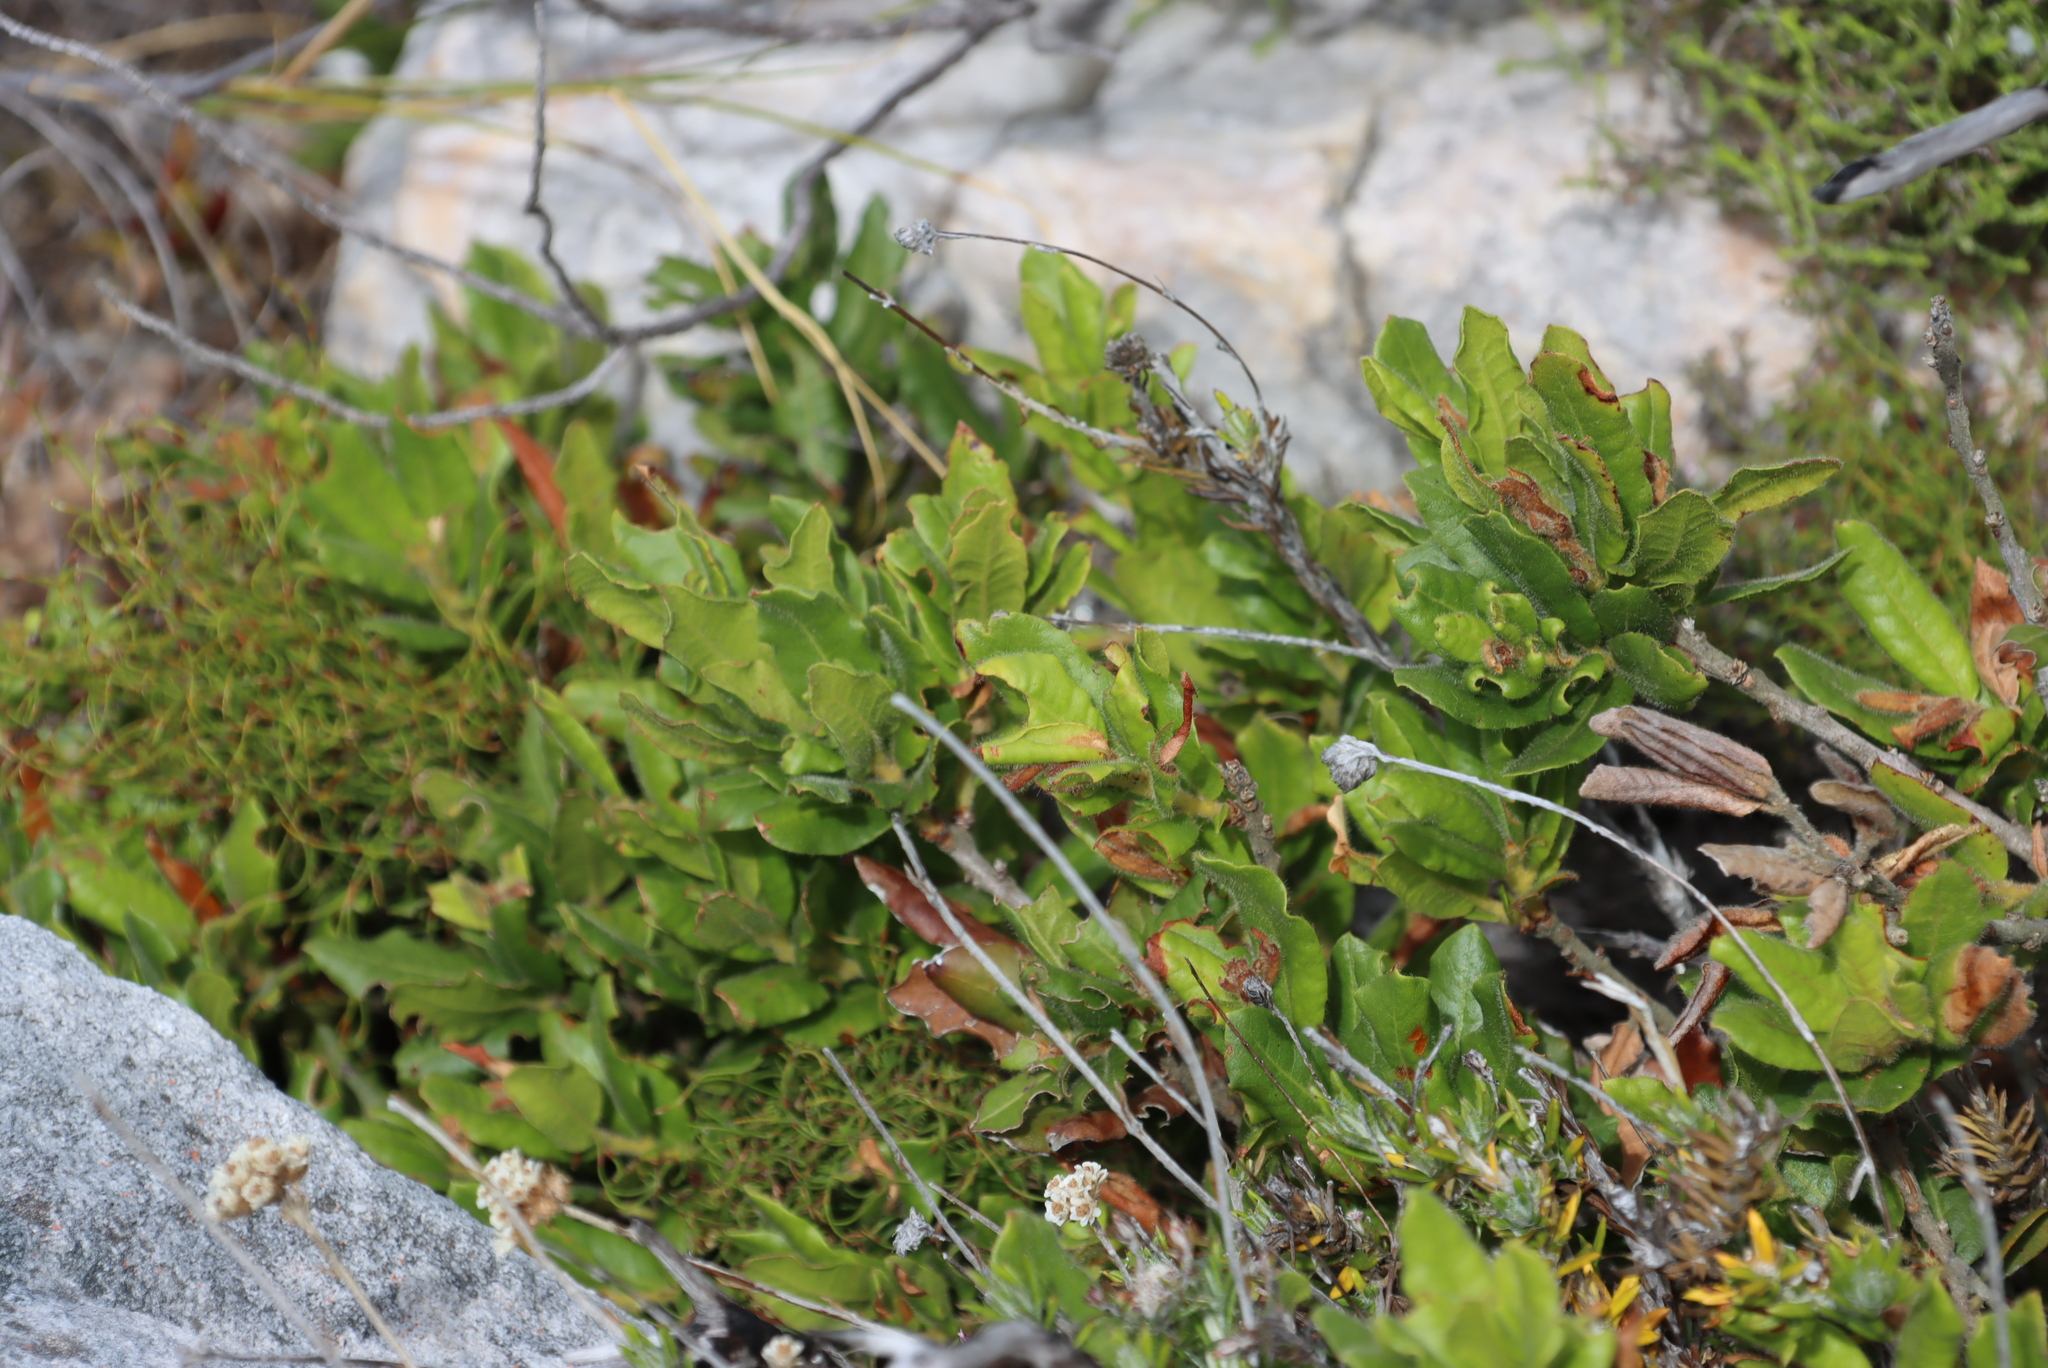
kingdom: Plantae
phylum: Tracheophyta
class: Magnoliopsida
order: Fagales
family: Myricaceae
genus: Morella
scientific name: Morella kraussiana
